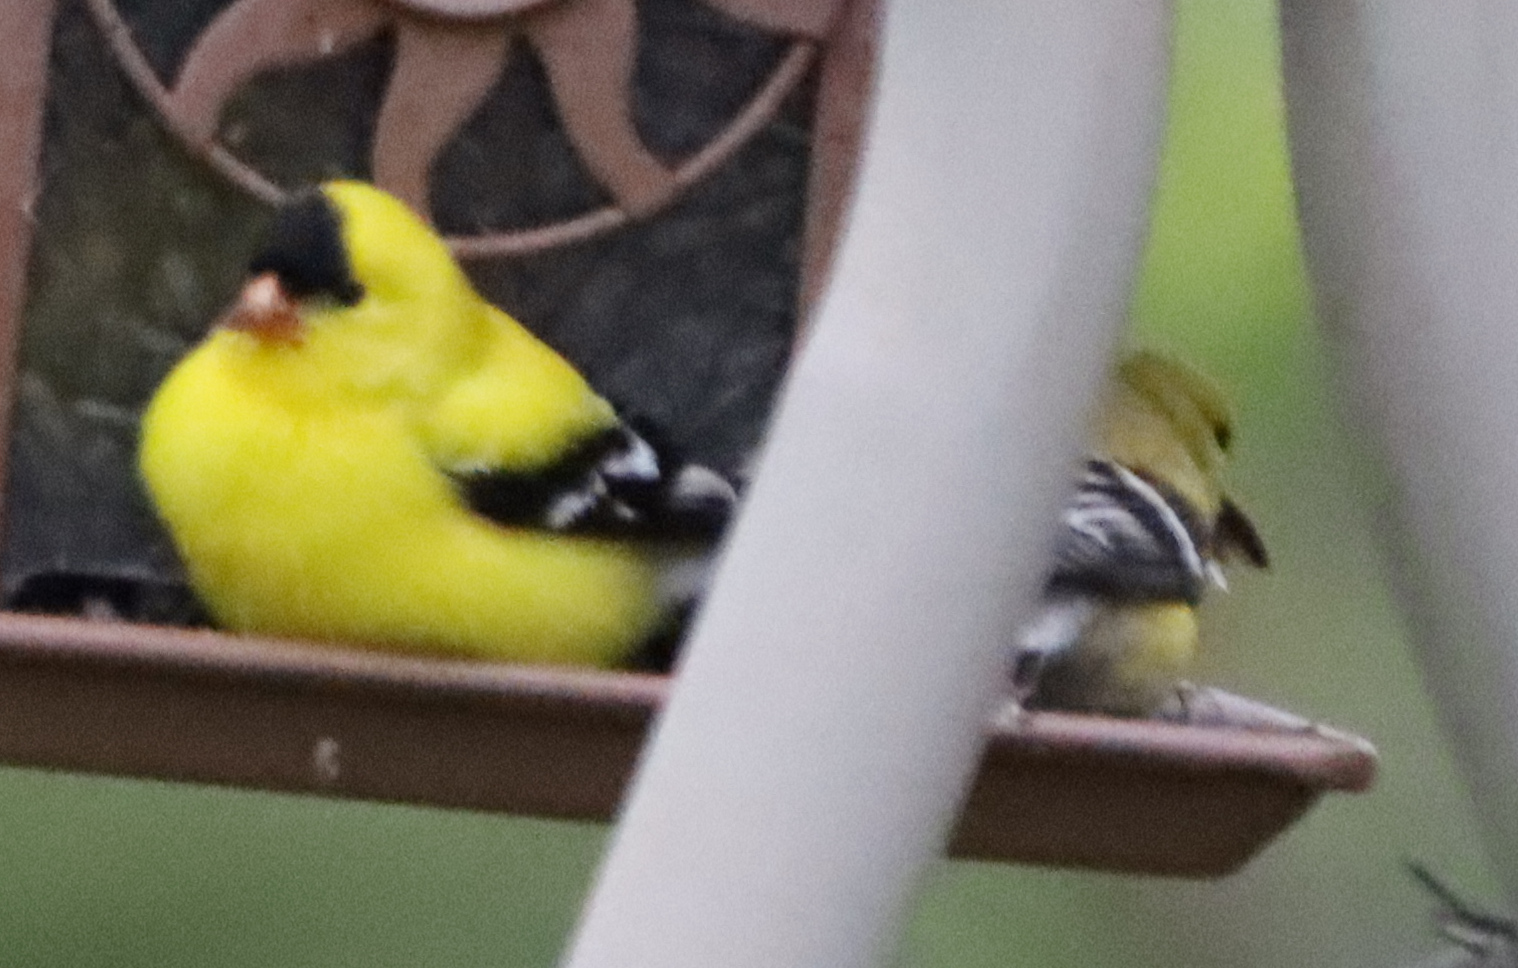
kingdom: Animalia
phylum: Chordata
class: Aves
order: Passeriformes
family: Fringillidae
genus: Spinus
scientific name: Spinus tristis
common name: American goldfinch
